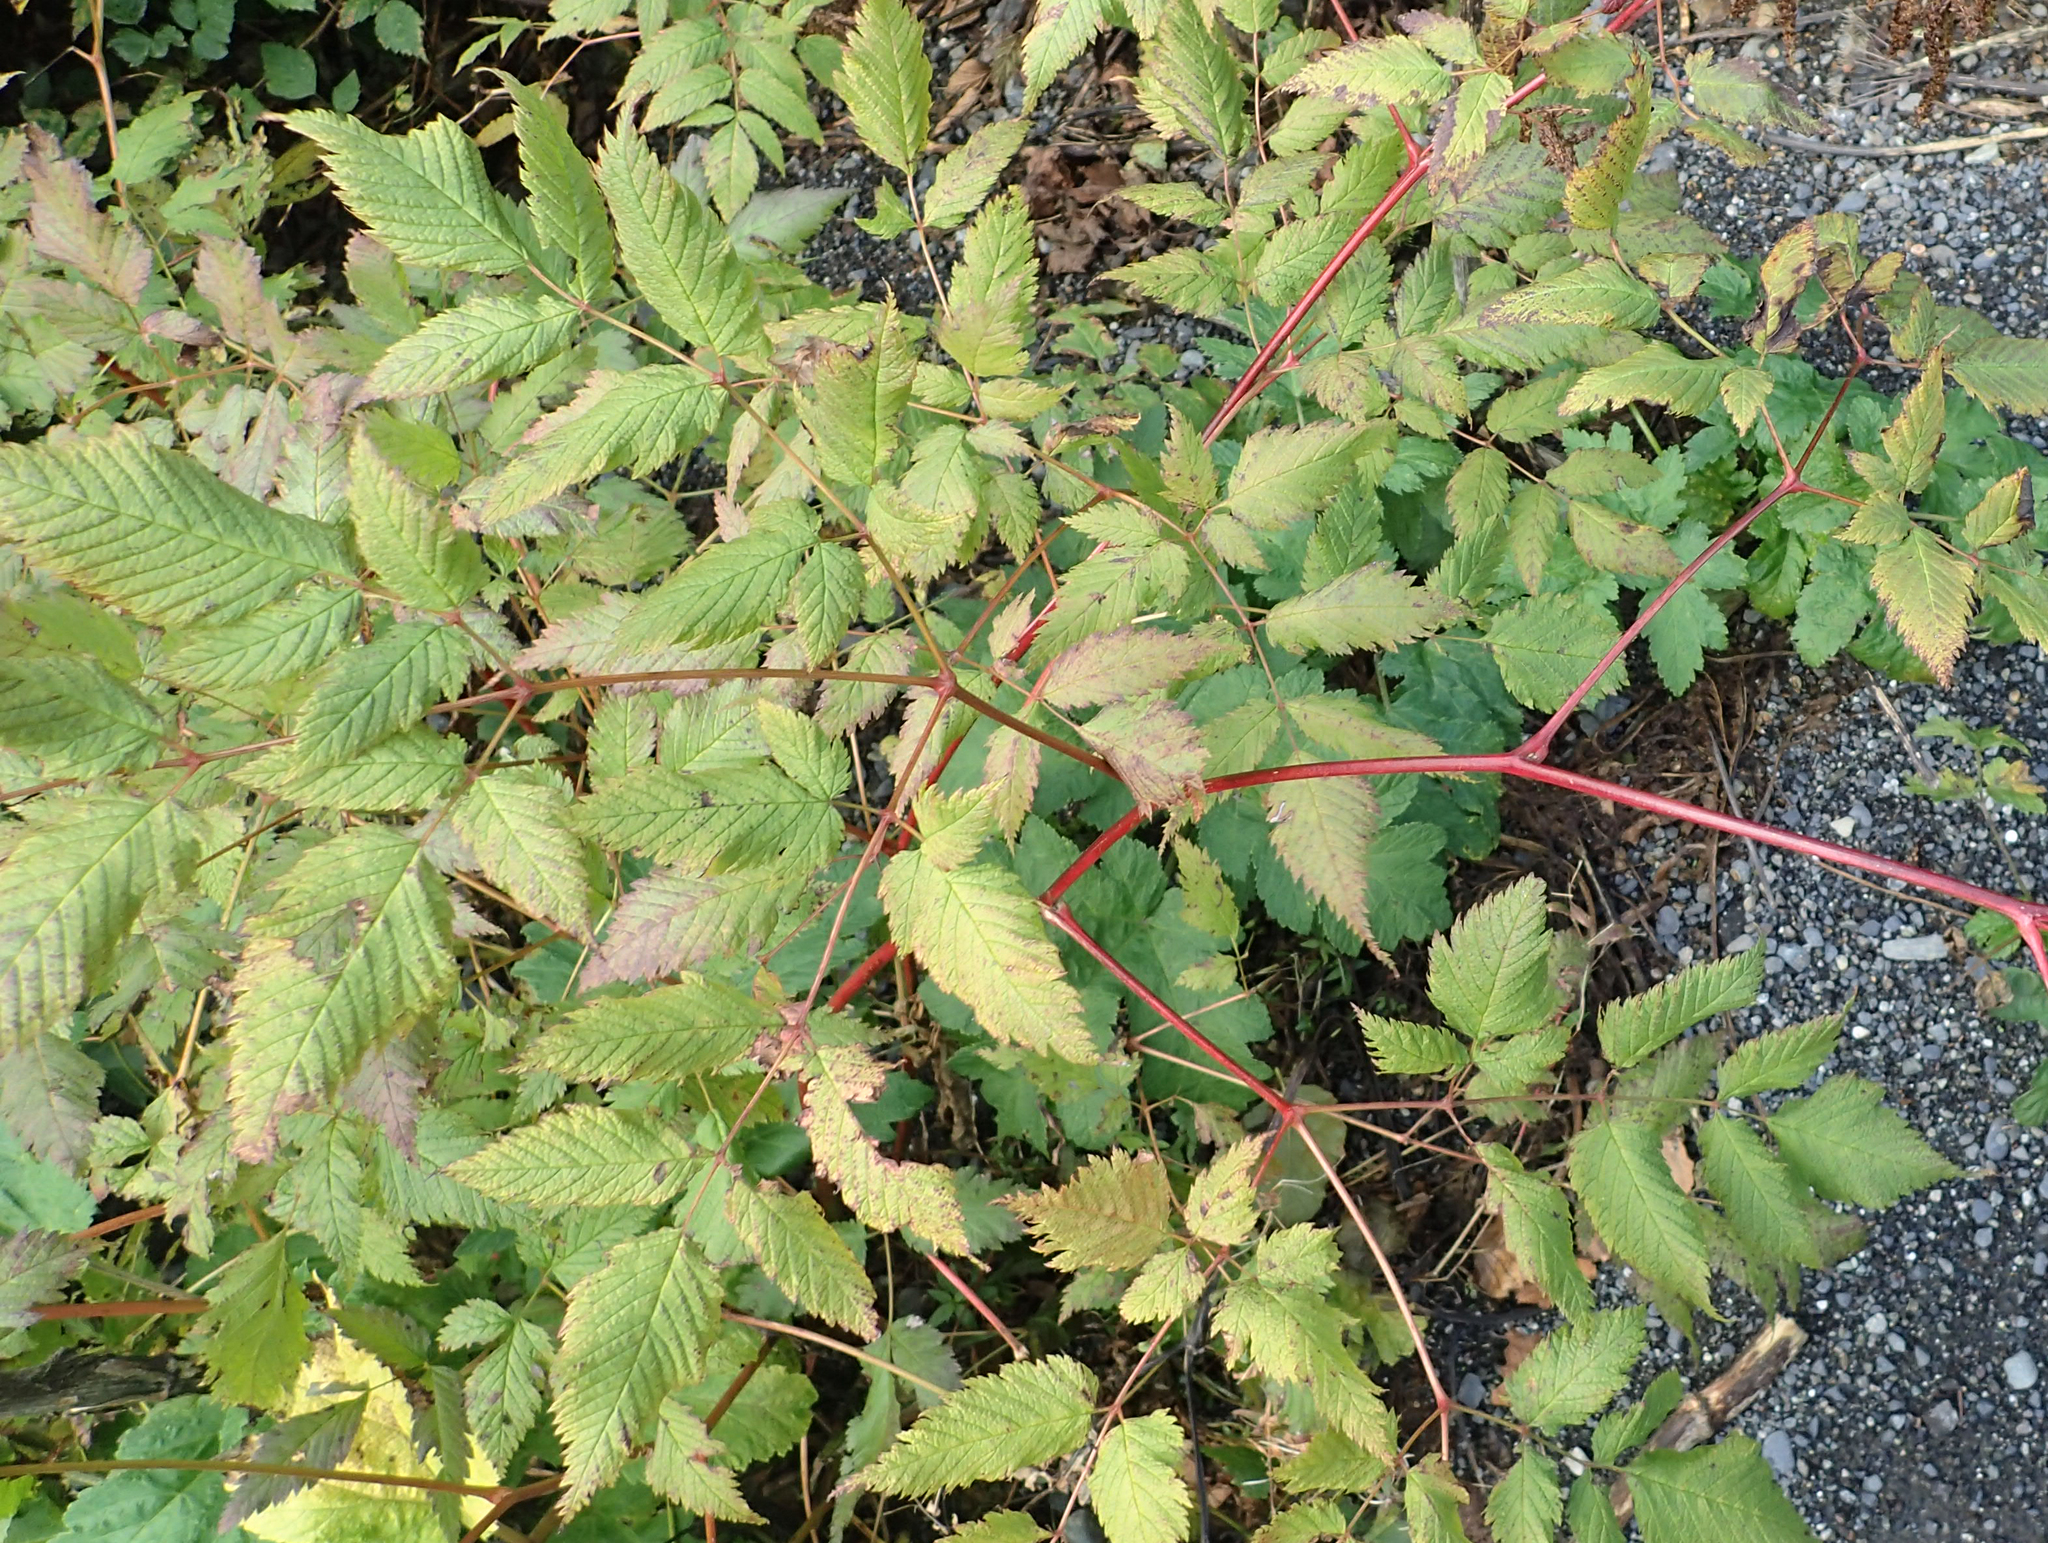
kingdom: Plantae
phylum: Tracheophyta
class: Magnoliopsida
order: Rosales
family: Rosaceae
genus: Aruncus
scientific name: Aruncus dioicus
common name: Buck's-beard
